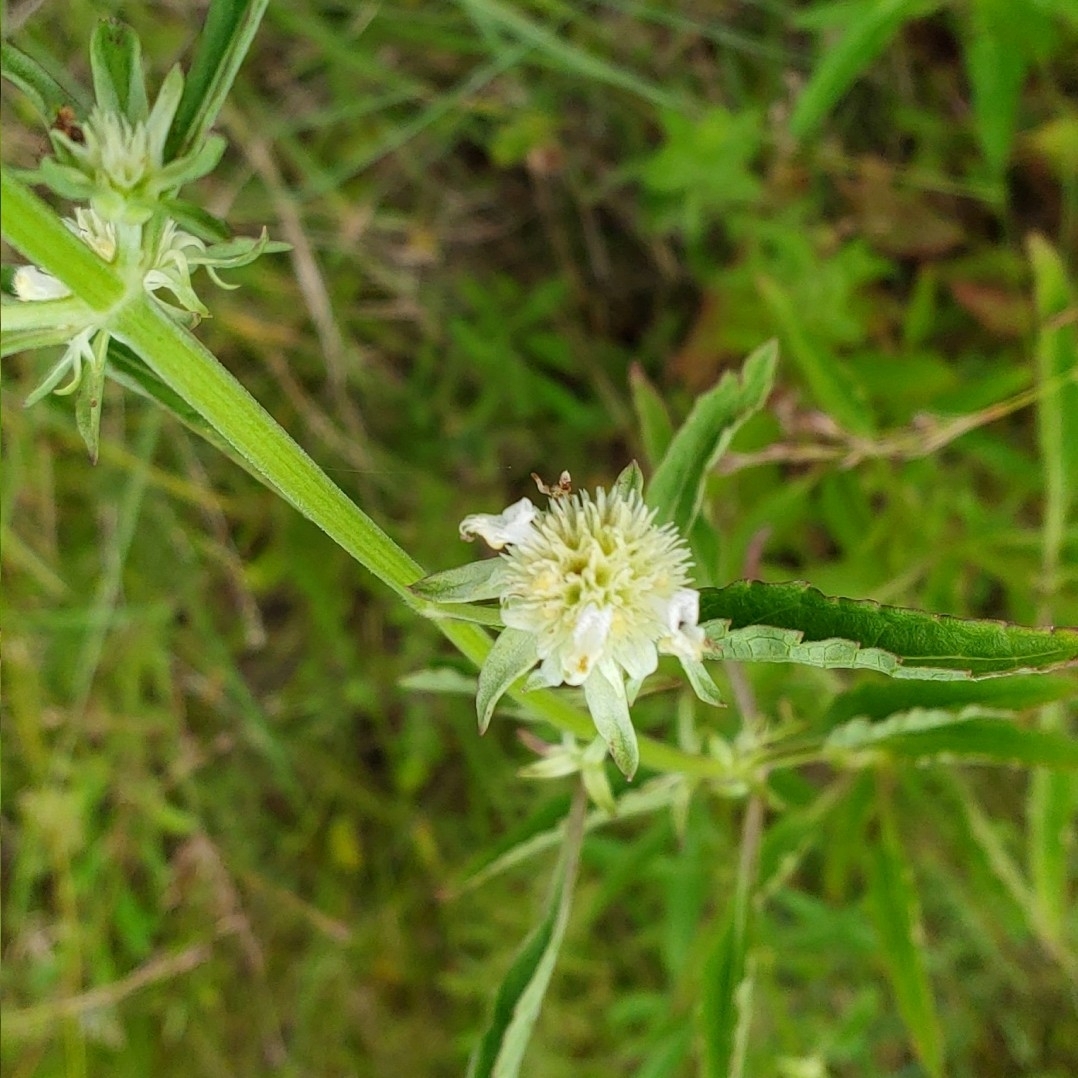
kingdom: Plantae
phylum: Tracheophyta
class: Magnoliopsida
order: Lamiales
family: Lamiaceae
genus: Hyptis
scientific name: Hyptis alata
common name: Cluster bush-mint
